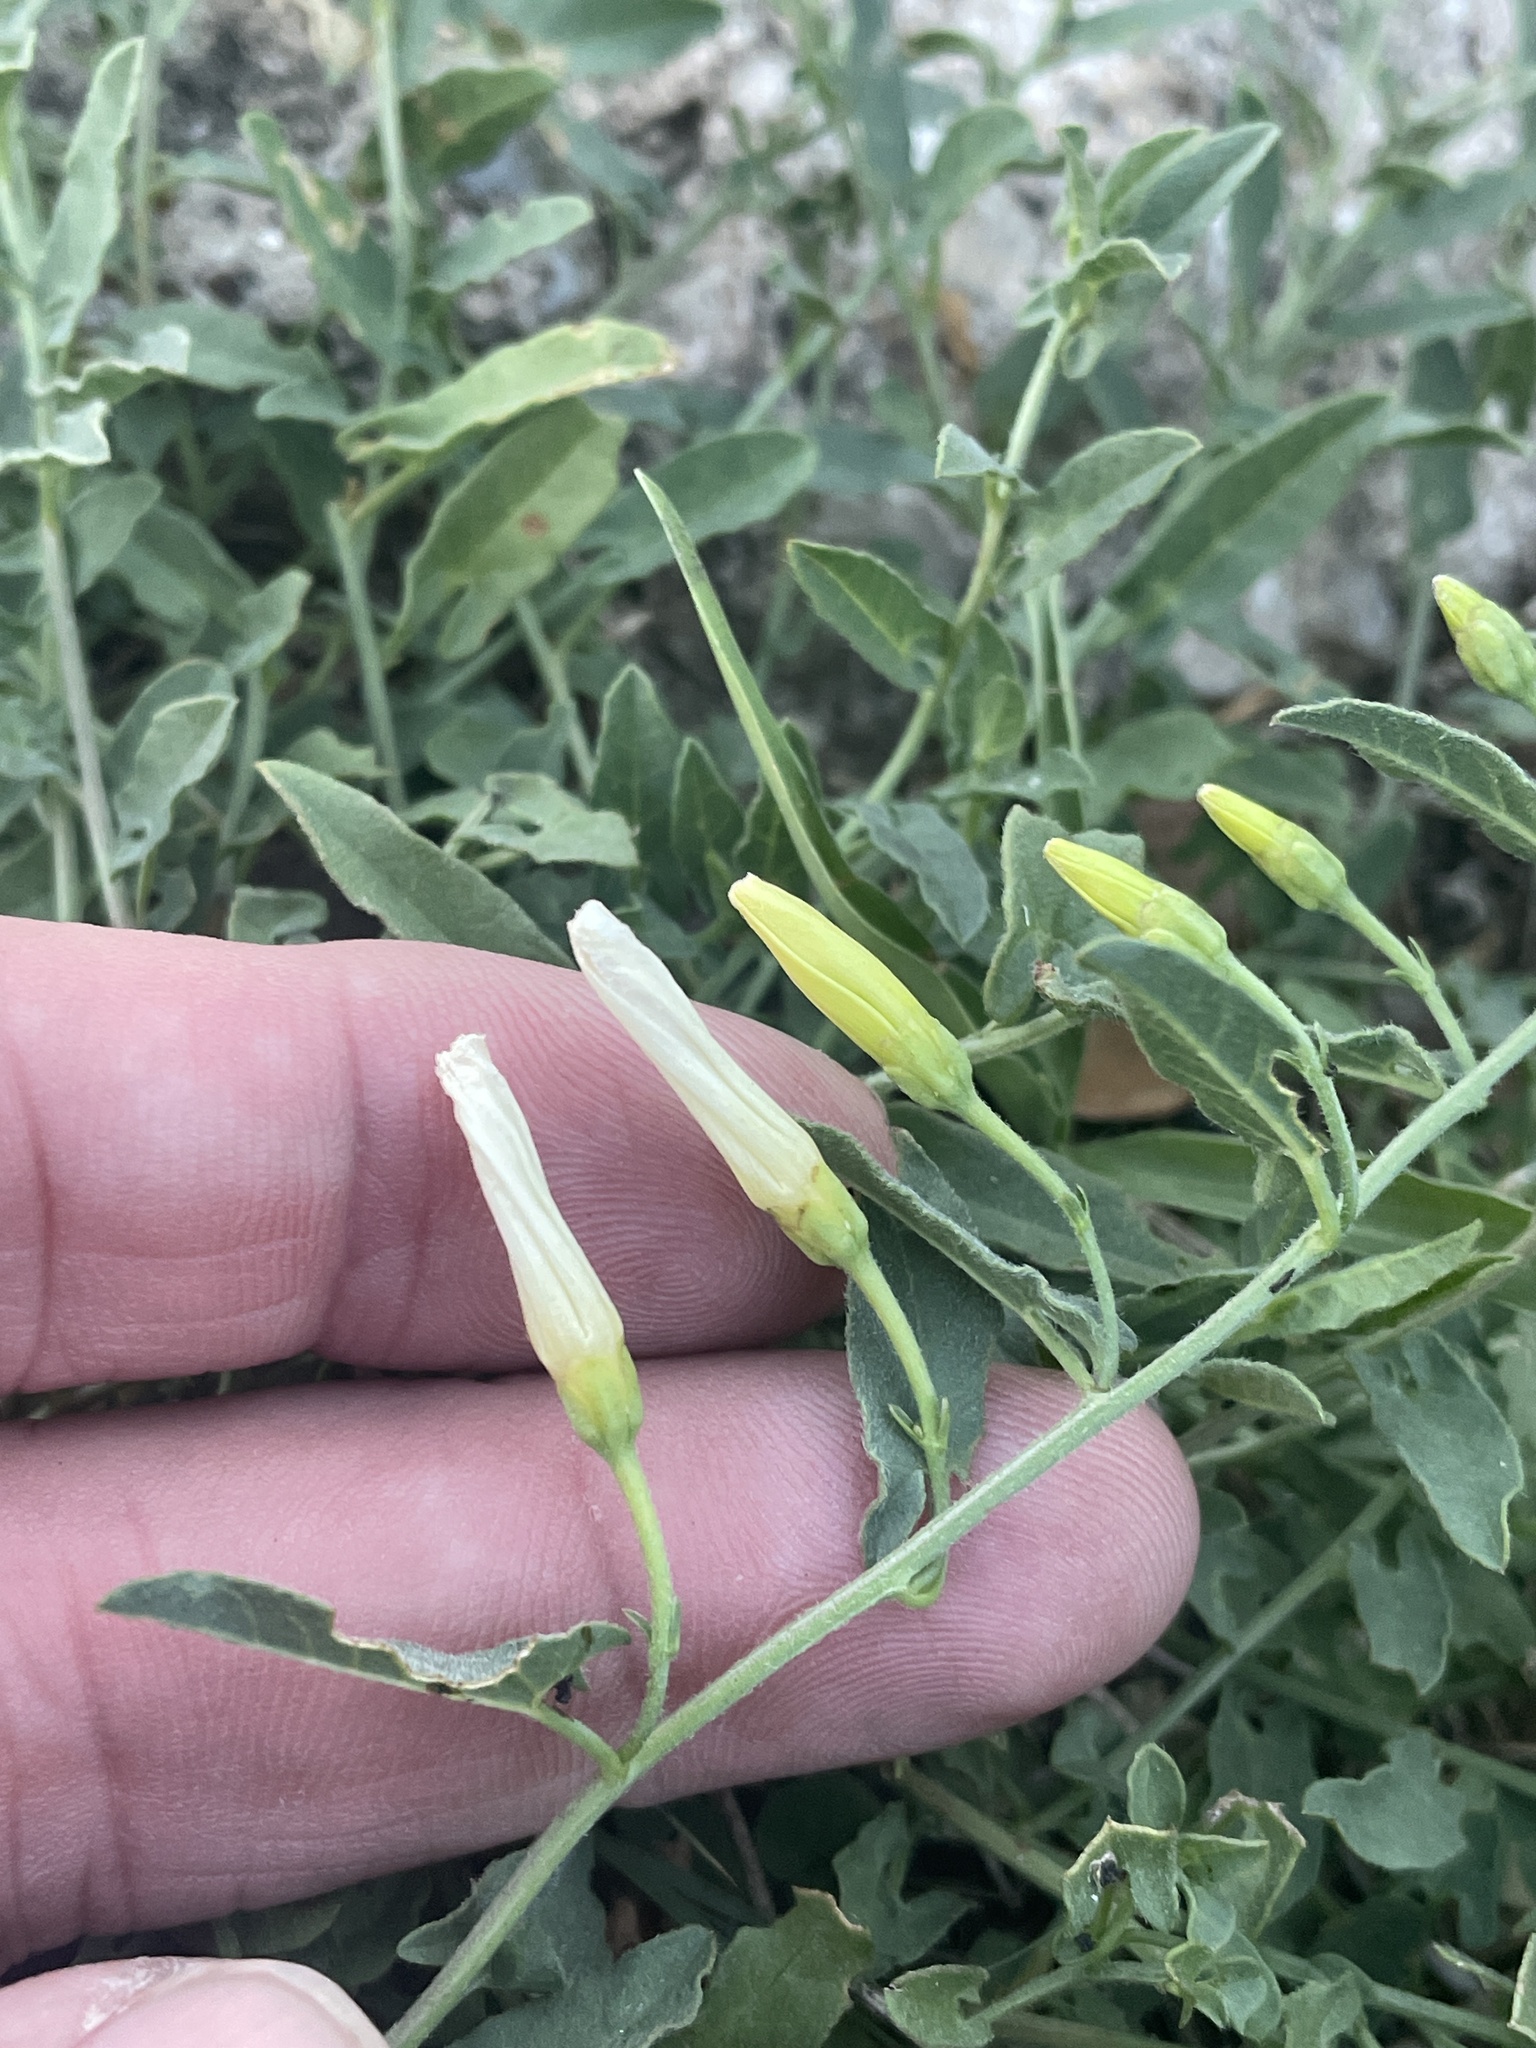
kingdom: Plantae
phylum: Tracheophyta
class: Magnoliopsida
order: Solanales
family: Convolvulaceae
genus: Convolvulus
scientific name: Convolvulus arvensis
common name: Field bindweed
